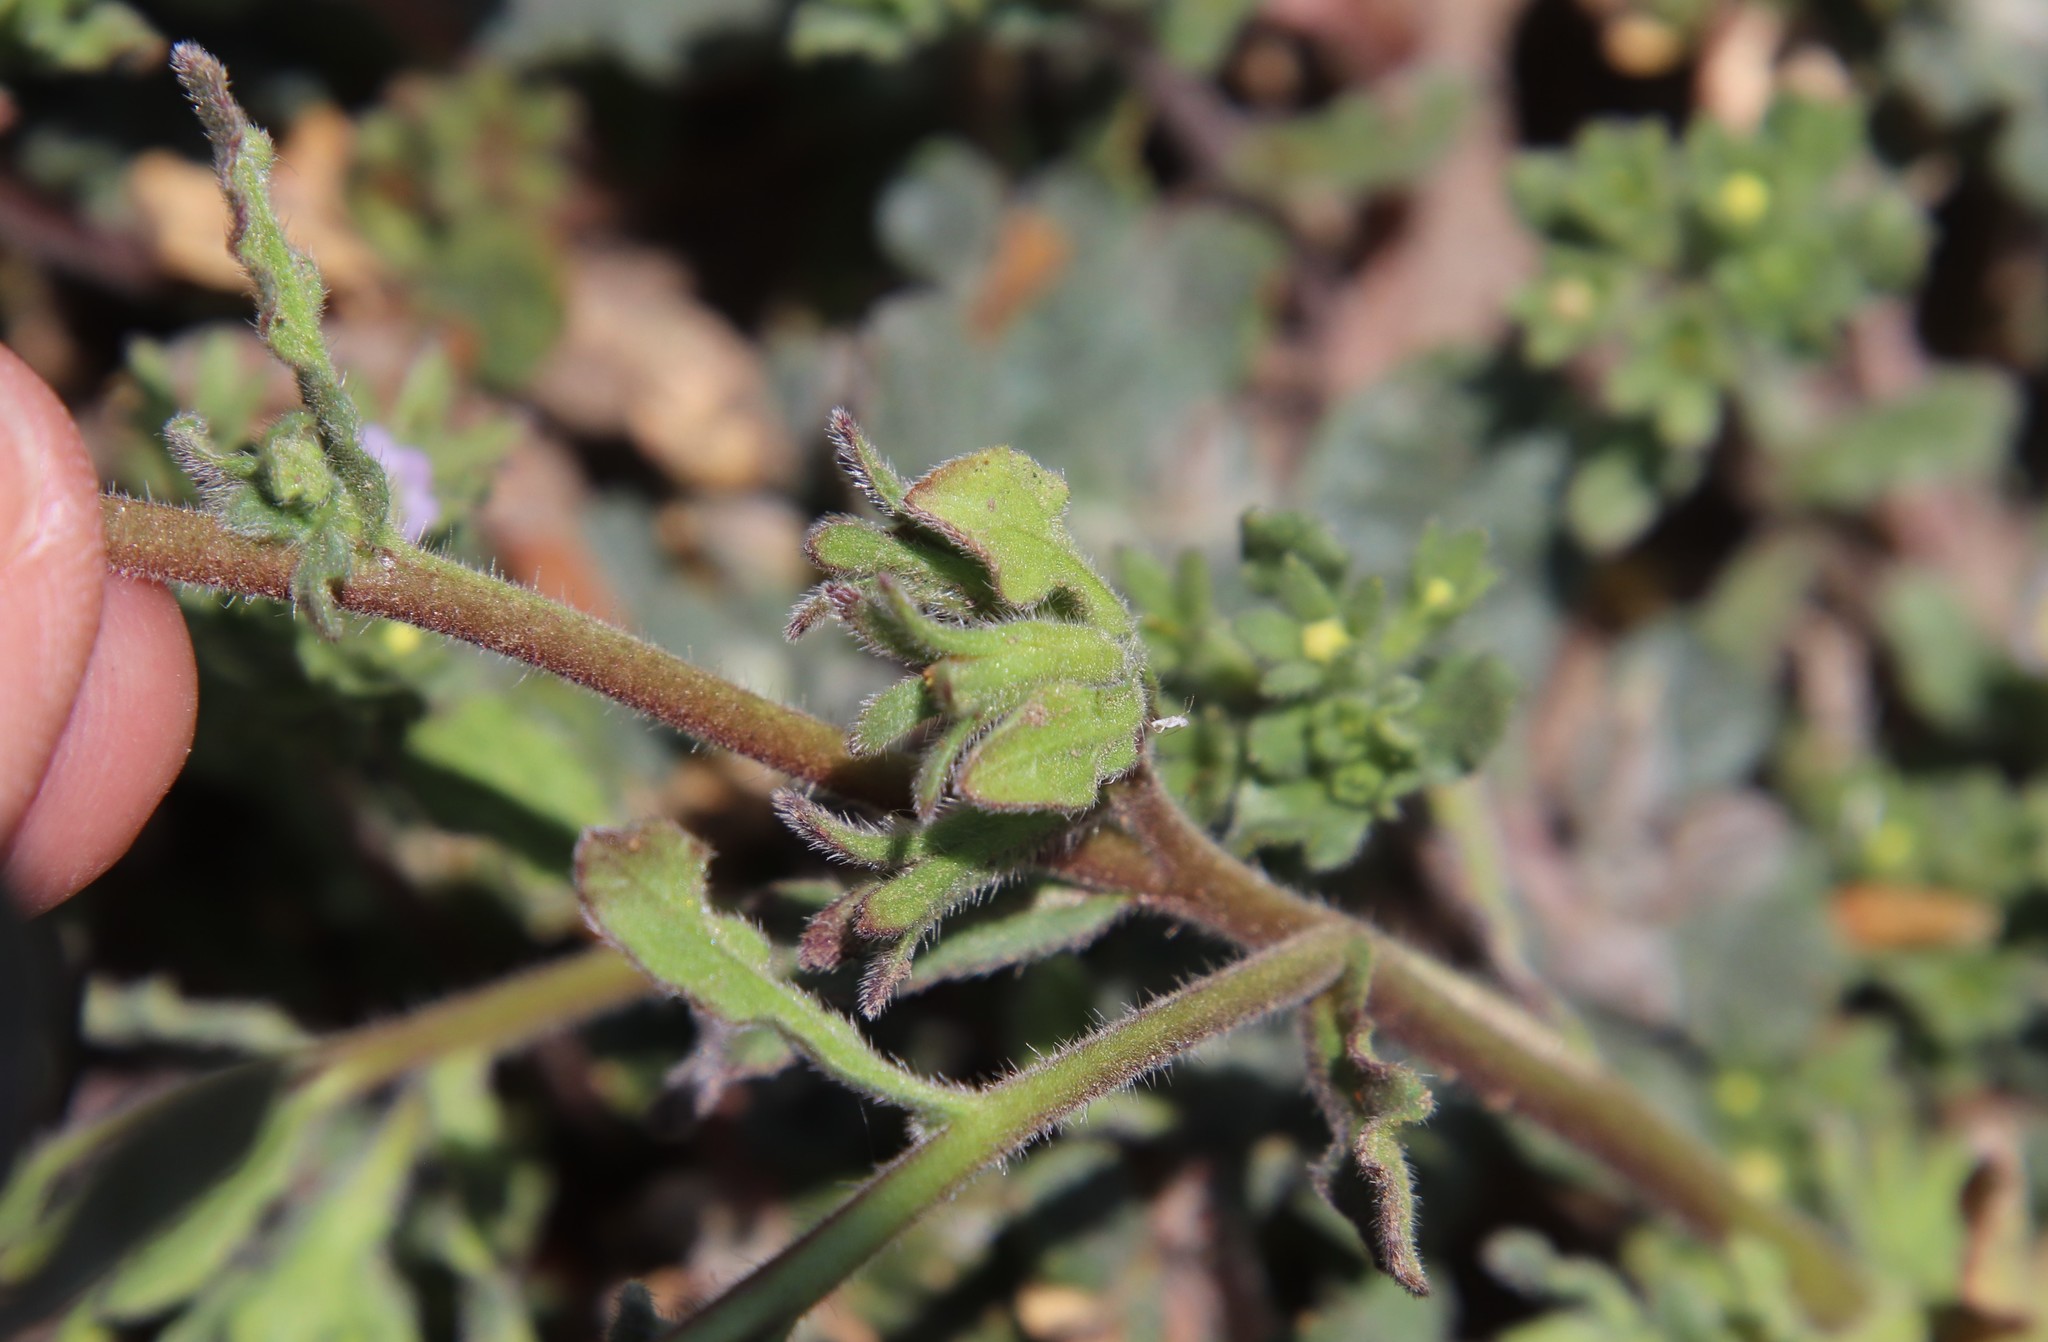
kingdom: Plantae
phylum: Tracheophyta
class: Magnoliopsida
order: Boraginales
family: Namaceae
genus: Nama
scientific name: Nama stenocarpa
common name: Mud fiddleleaf
